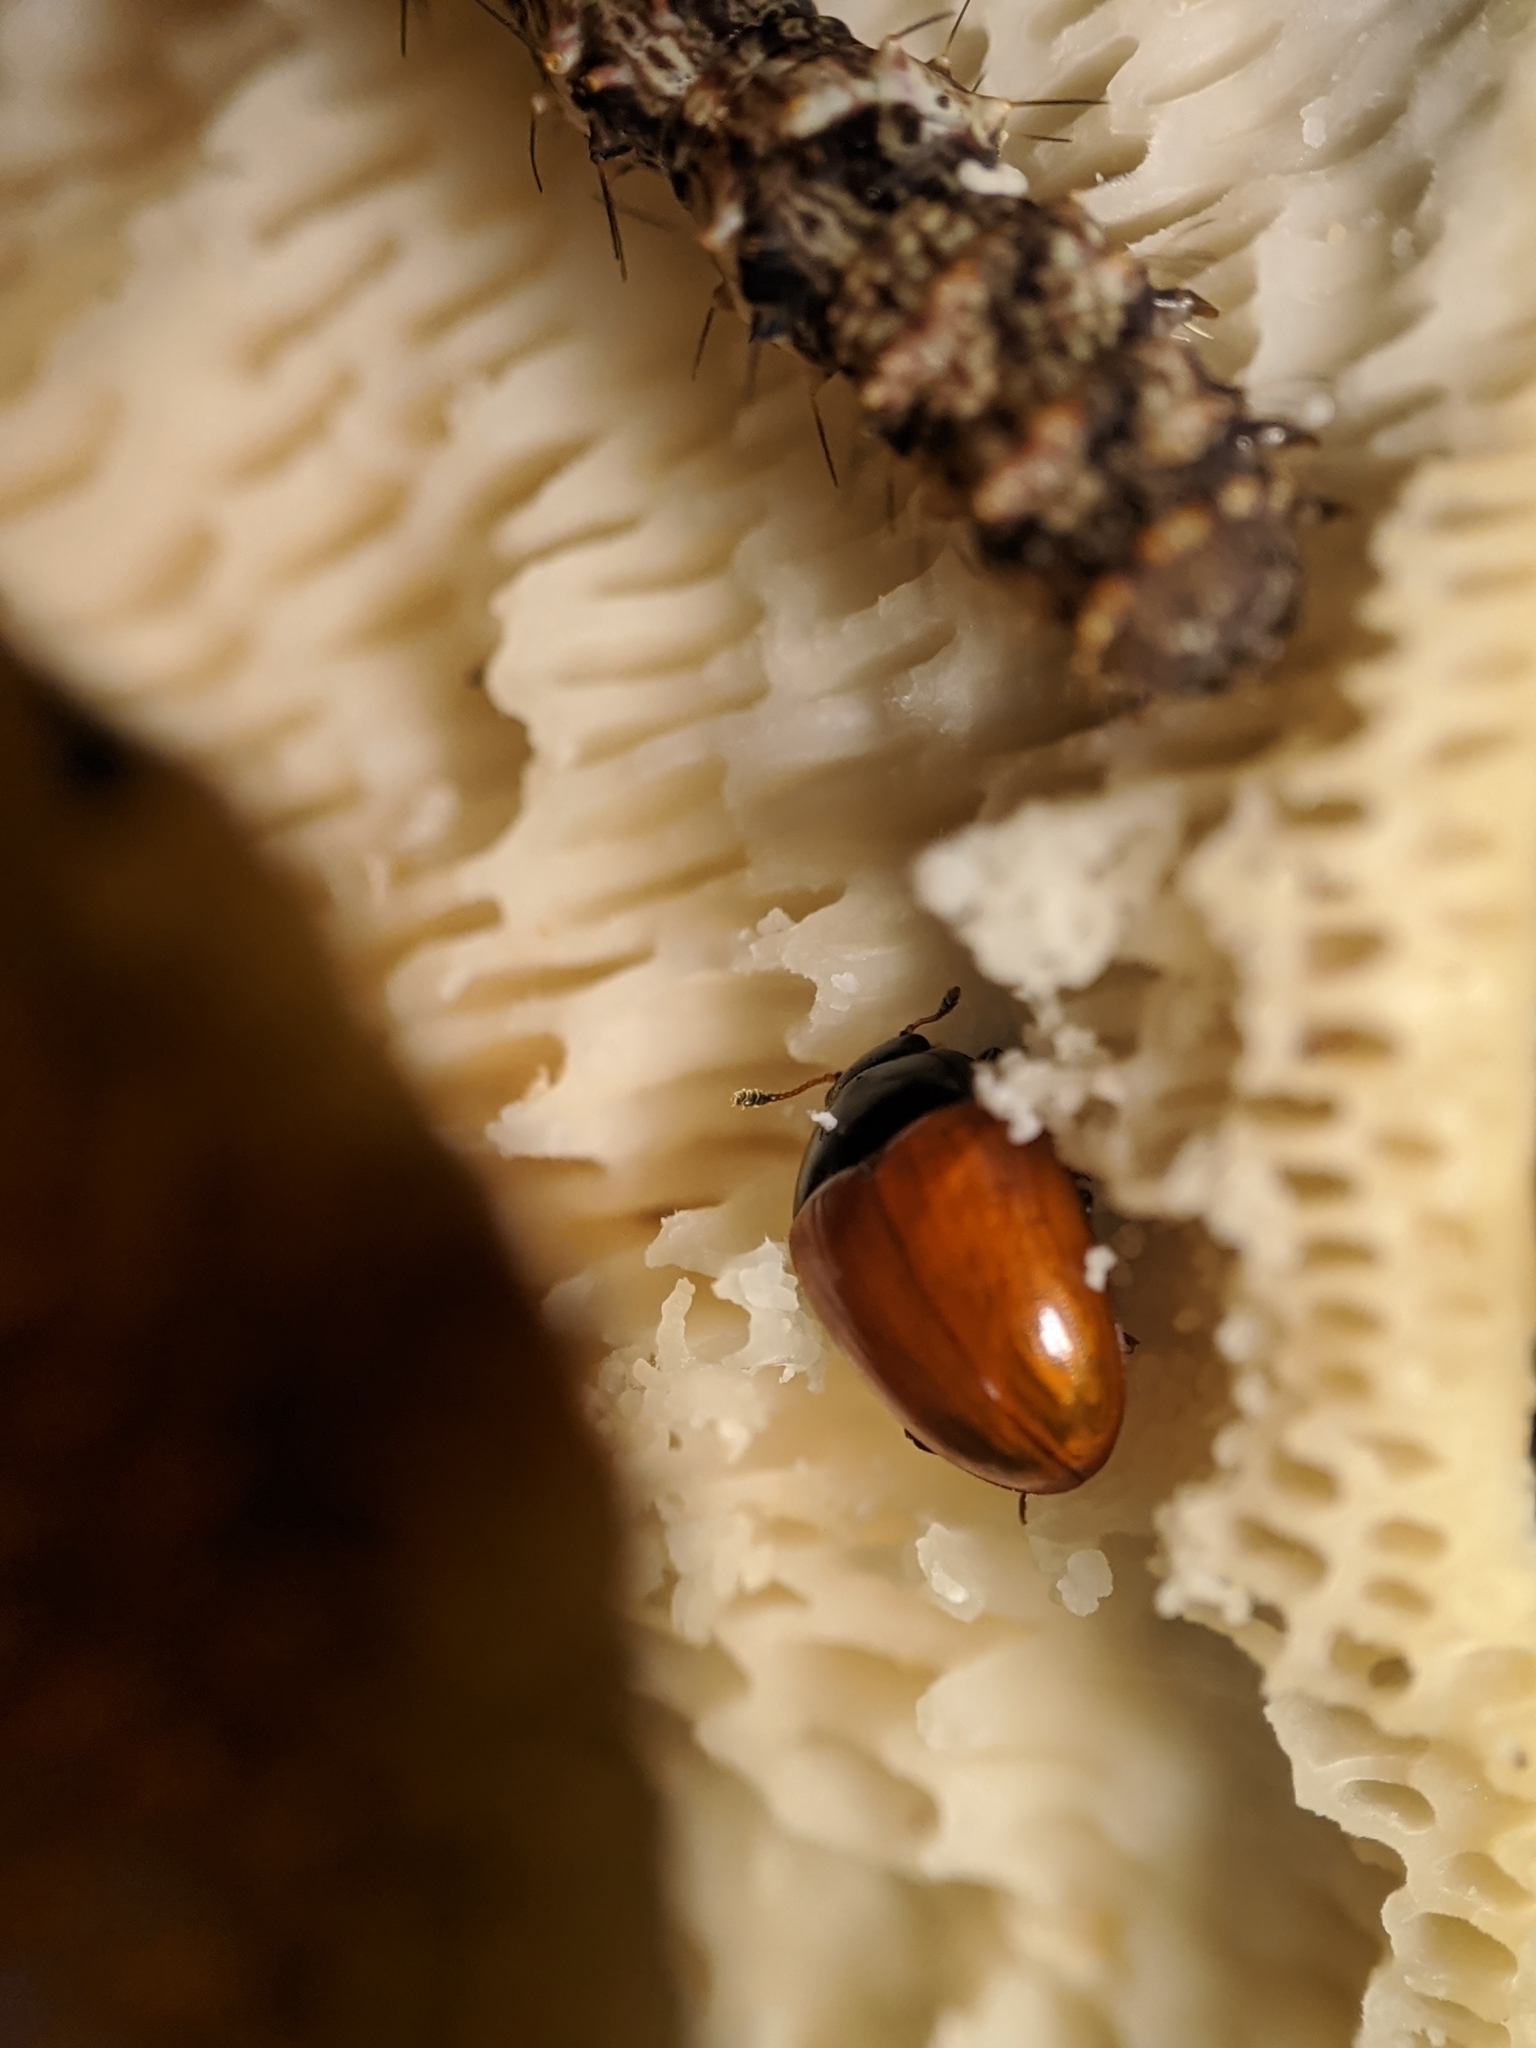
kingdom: Animalia
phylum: Arthropoda
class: Insecta
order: Coleoptera
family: Erotylidae
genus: Tritoma
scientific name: Tritoma sanguinipennis
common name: Red-winged tritoma
